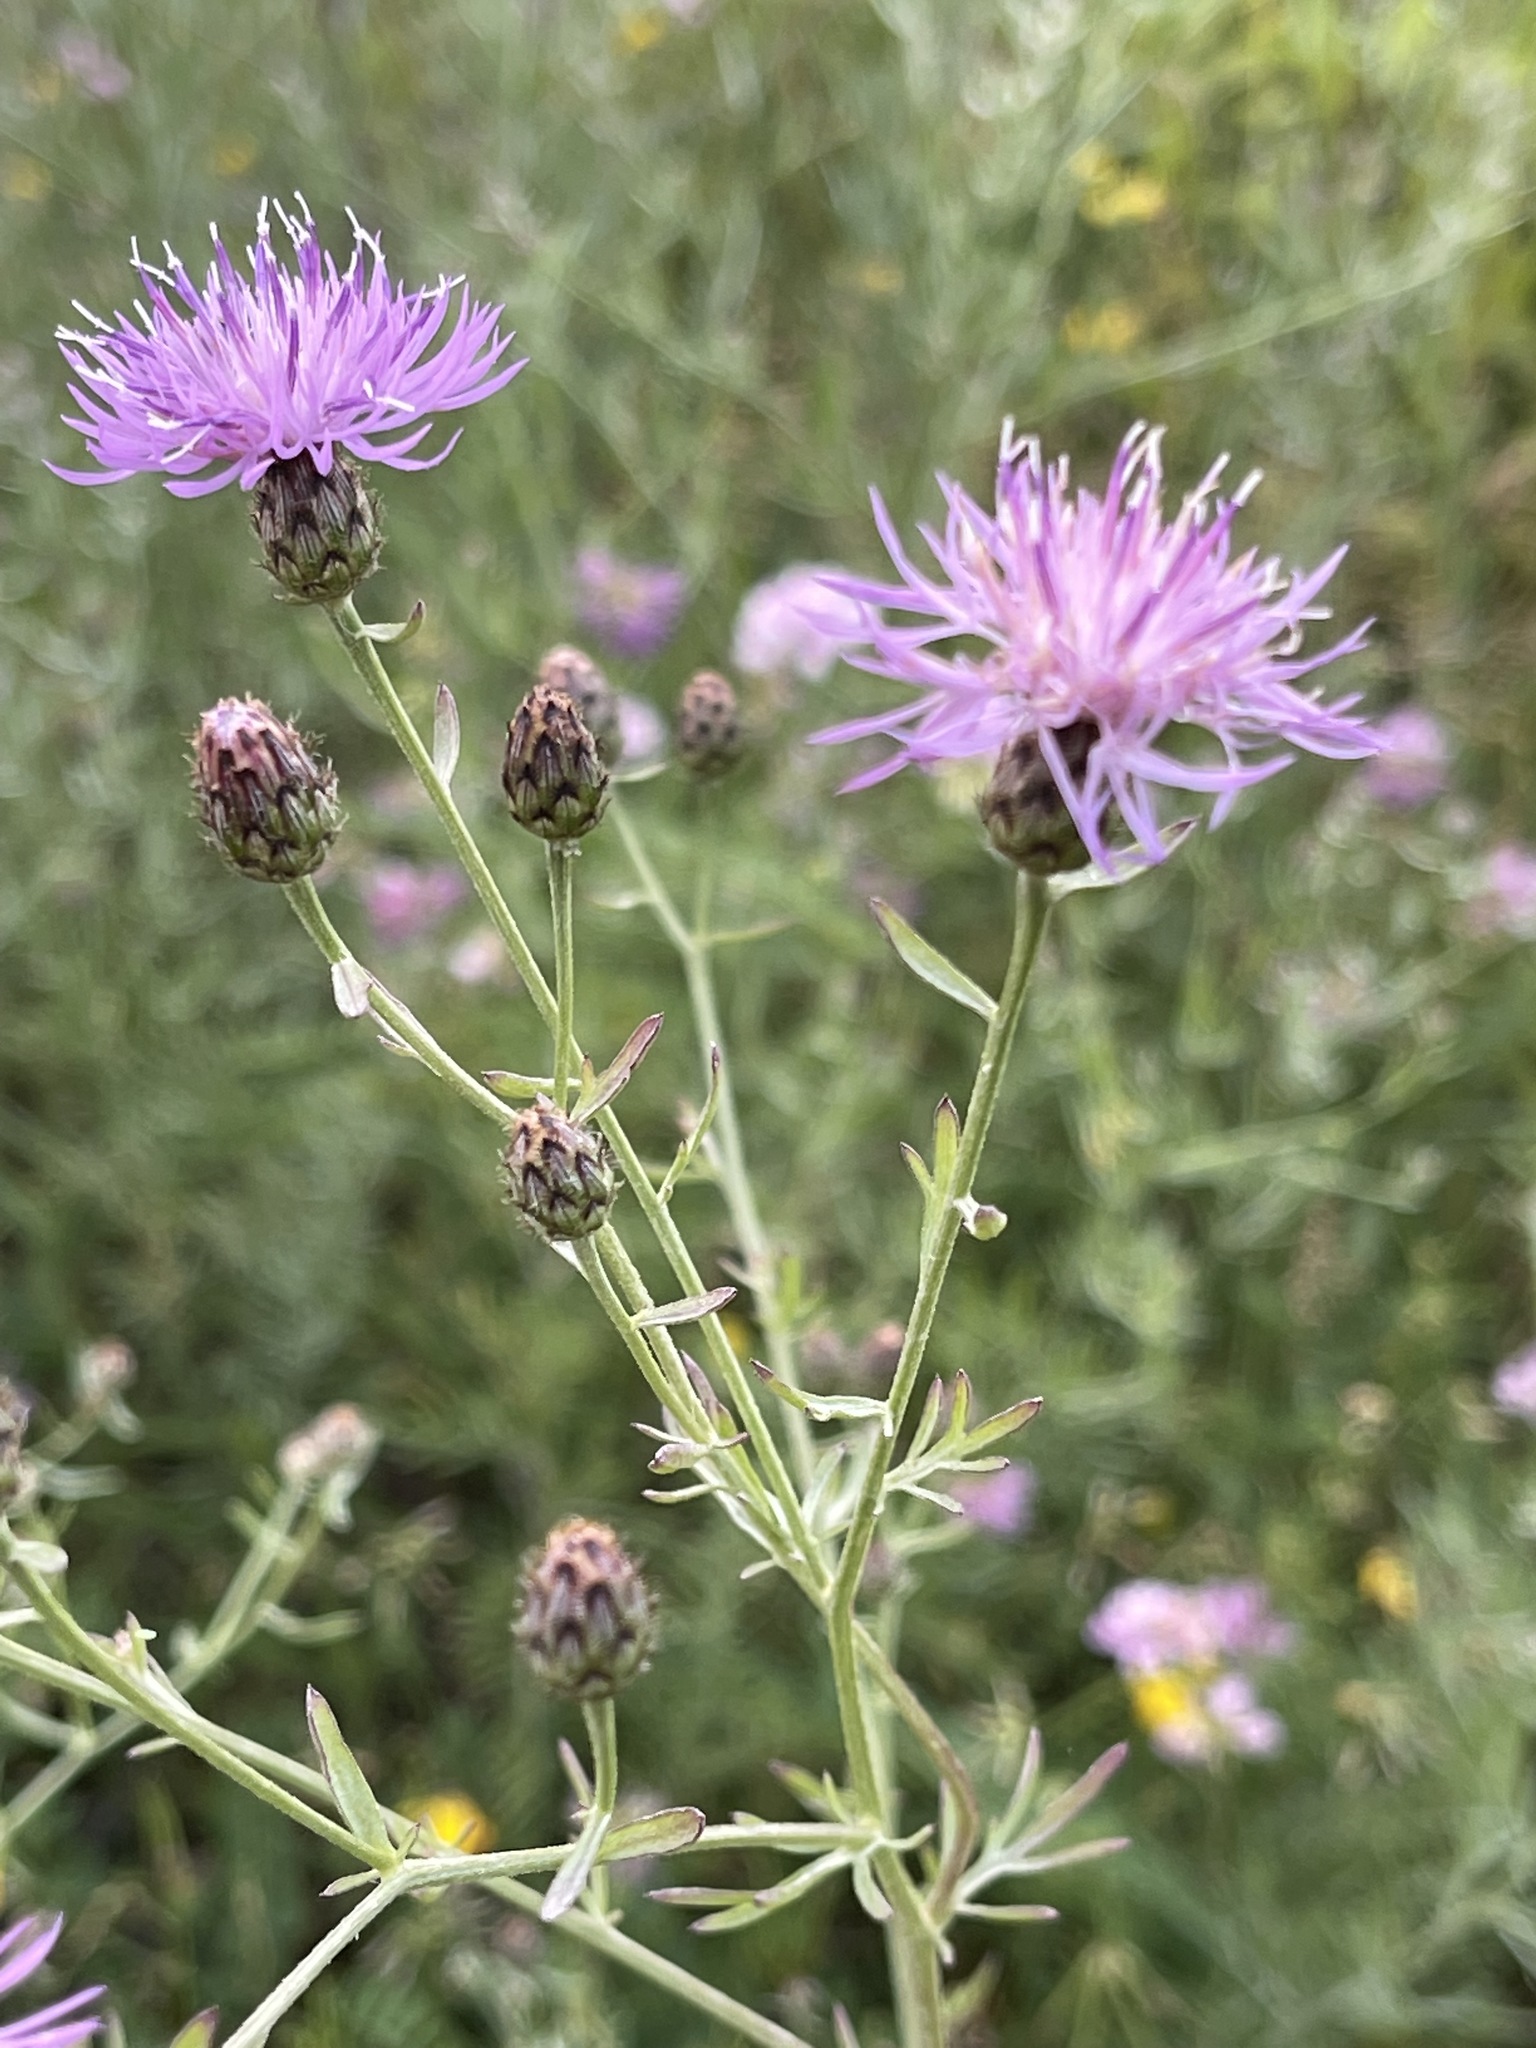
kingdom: Plantae
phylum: Tracheophyta
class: Magnoliopsida
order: Asterales
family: Asteraceae
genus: Centaurea
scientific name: Centaurea stoebe
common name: Spotted knapweed
